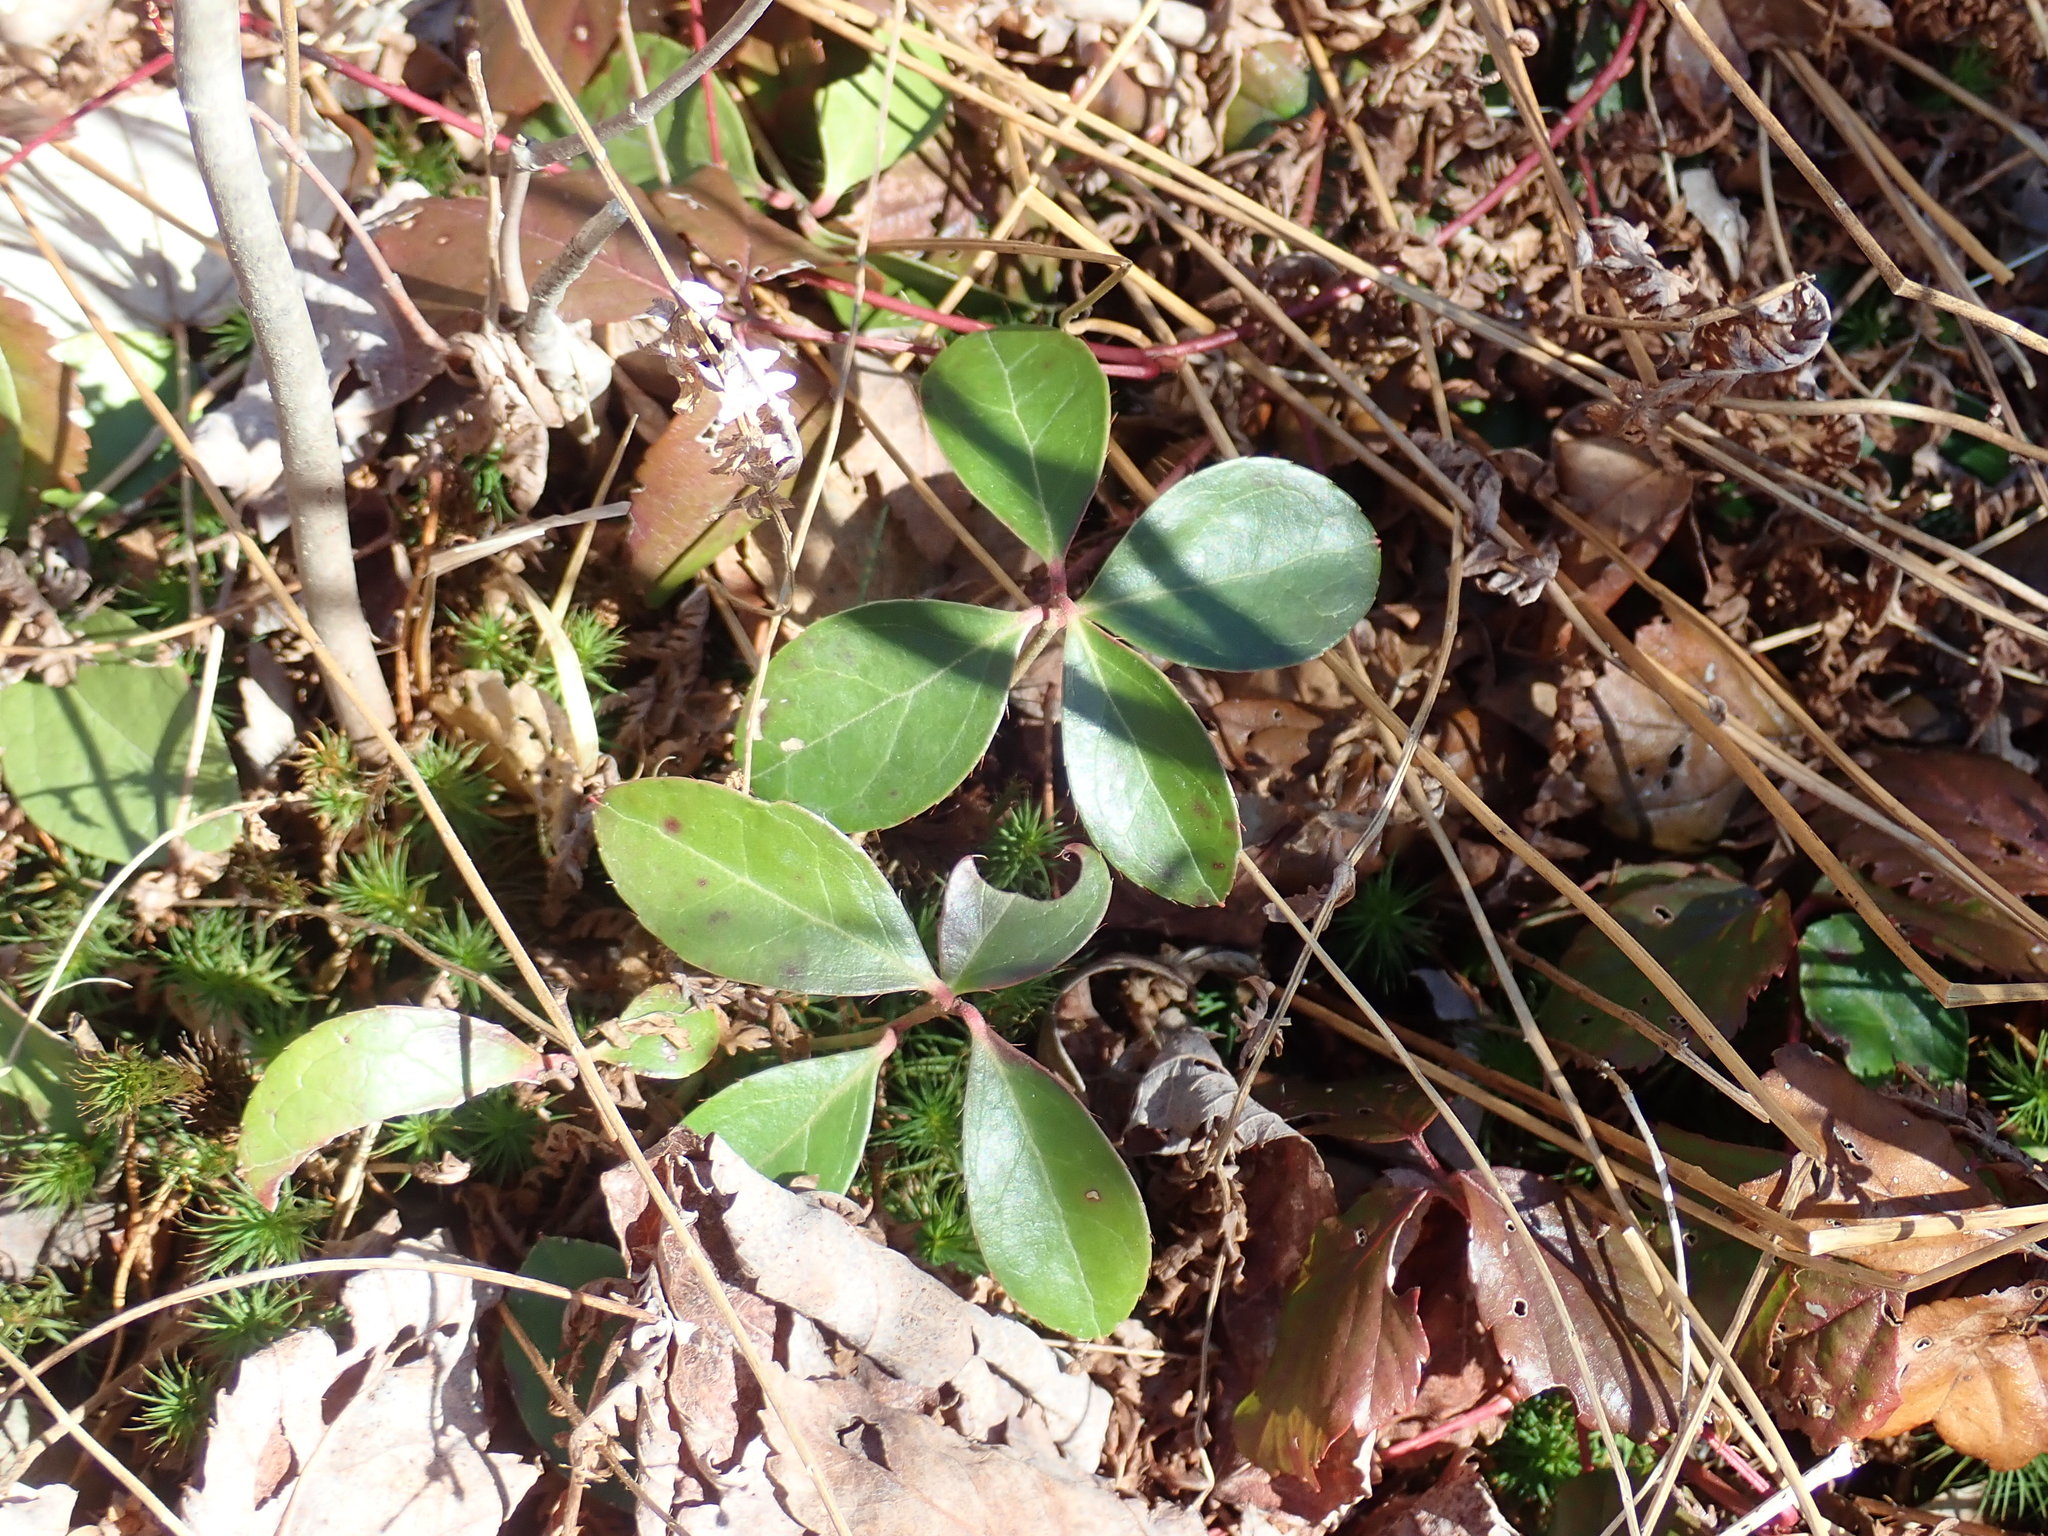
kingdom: Plantae
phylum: Tracheophyta
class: Magnoliopsida
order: Ericales
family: Ericaceae
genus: Gaultheria
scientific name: Gaultheria procumbens
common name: Checkerberry
